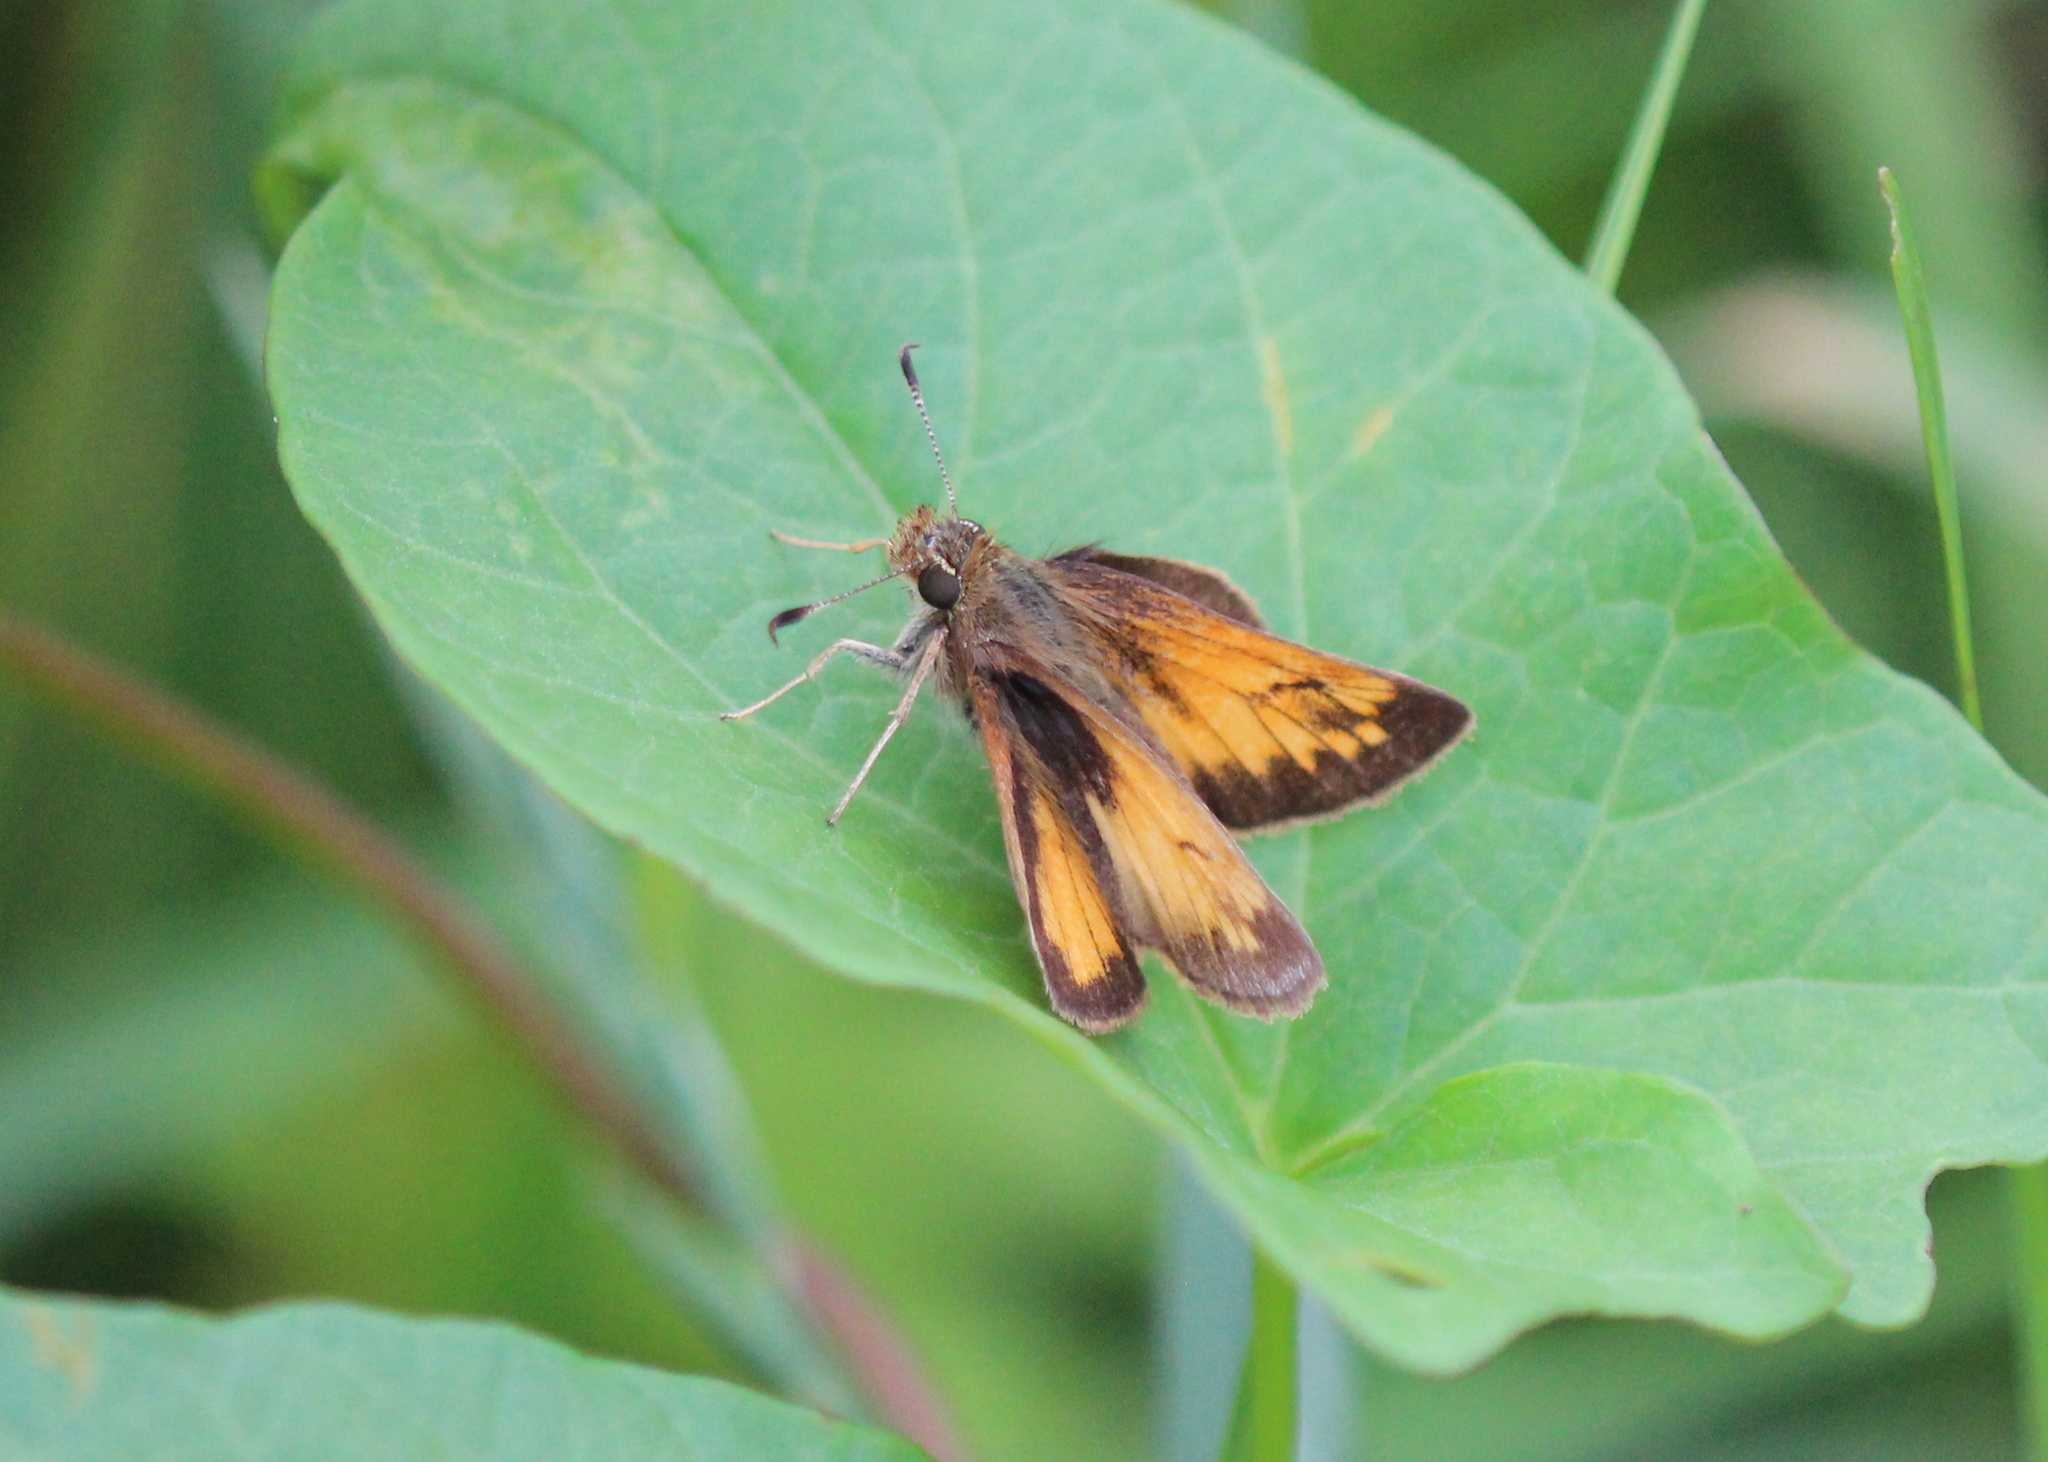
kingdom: Animalia
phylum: Arthropoda
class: Insecta
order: Lepidoptera
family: Hesperiidae
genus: Lon
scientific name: Lon hobomok
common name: Hobomok skipper
